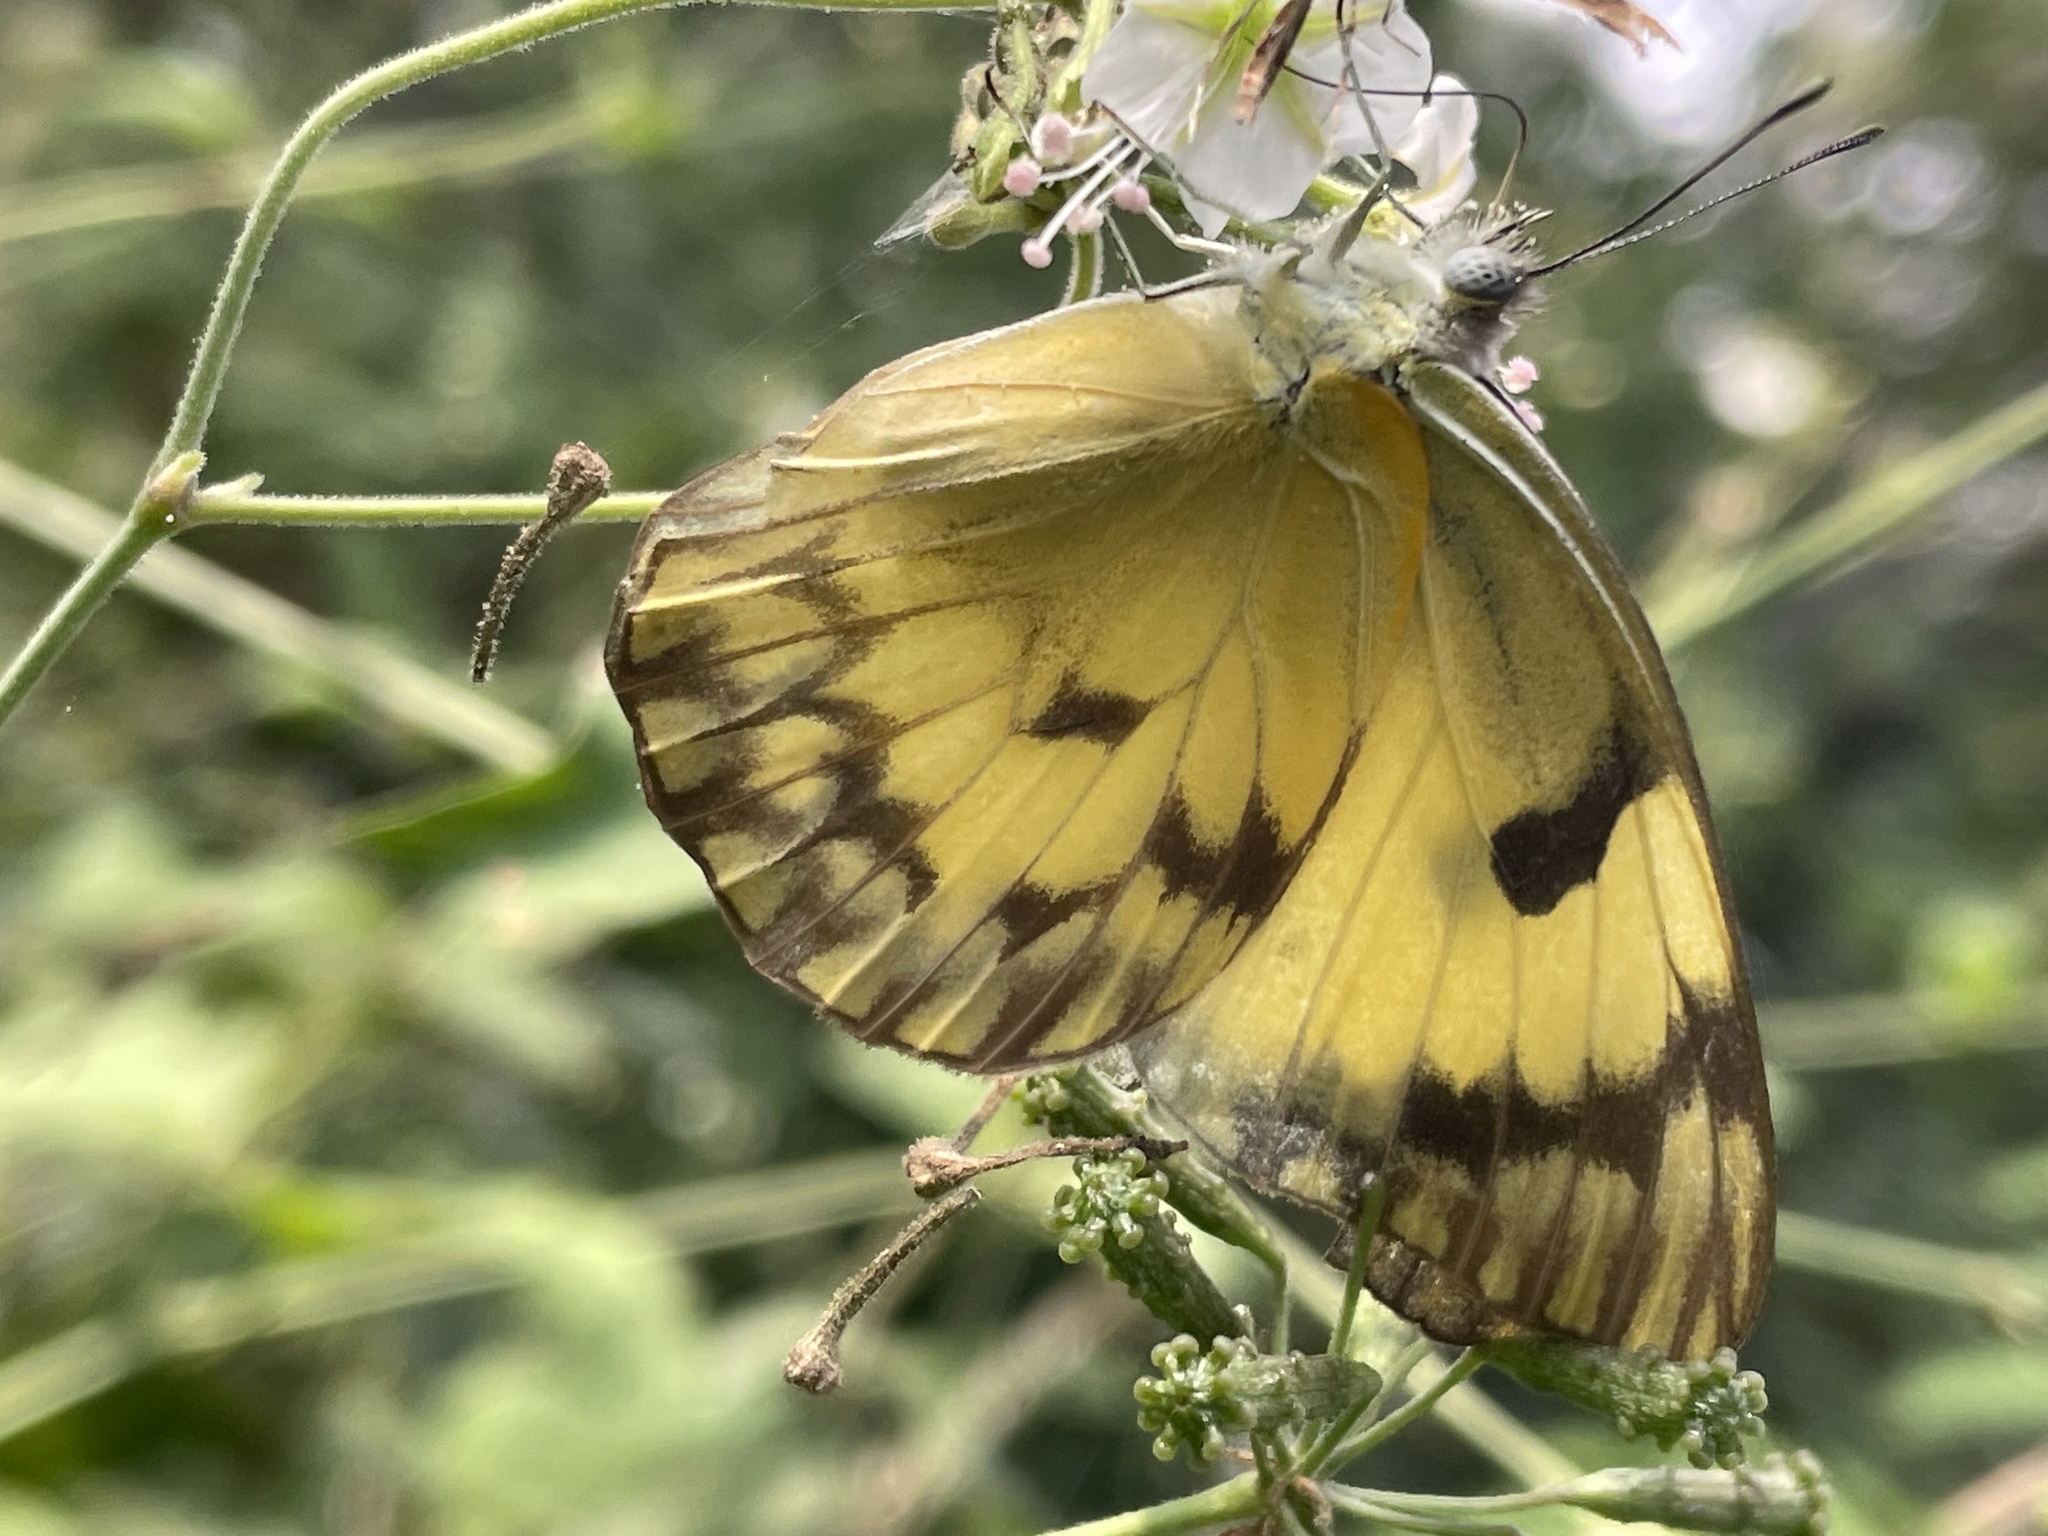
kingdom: Animalia
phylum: Arthropoda
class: Insecta
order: Lepidoptera
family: Pieridae
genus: Belenois
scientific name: Belenois gidica
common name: Pointed caper white
